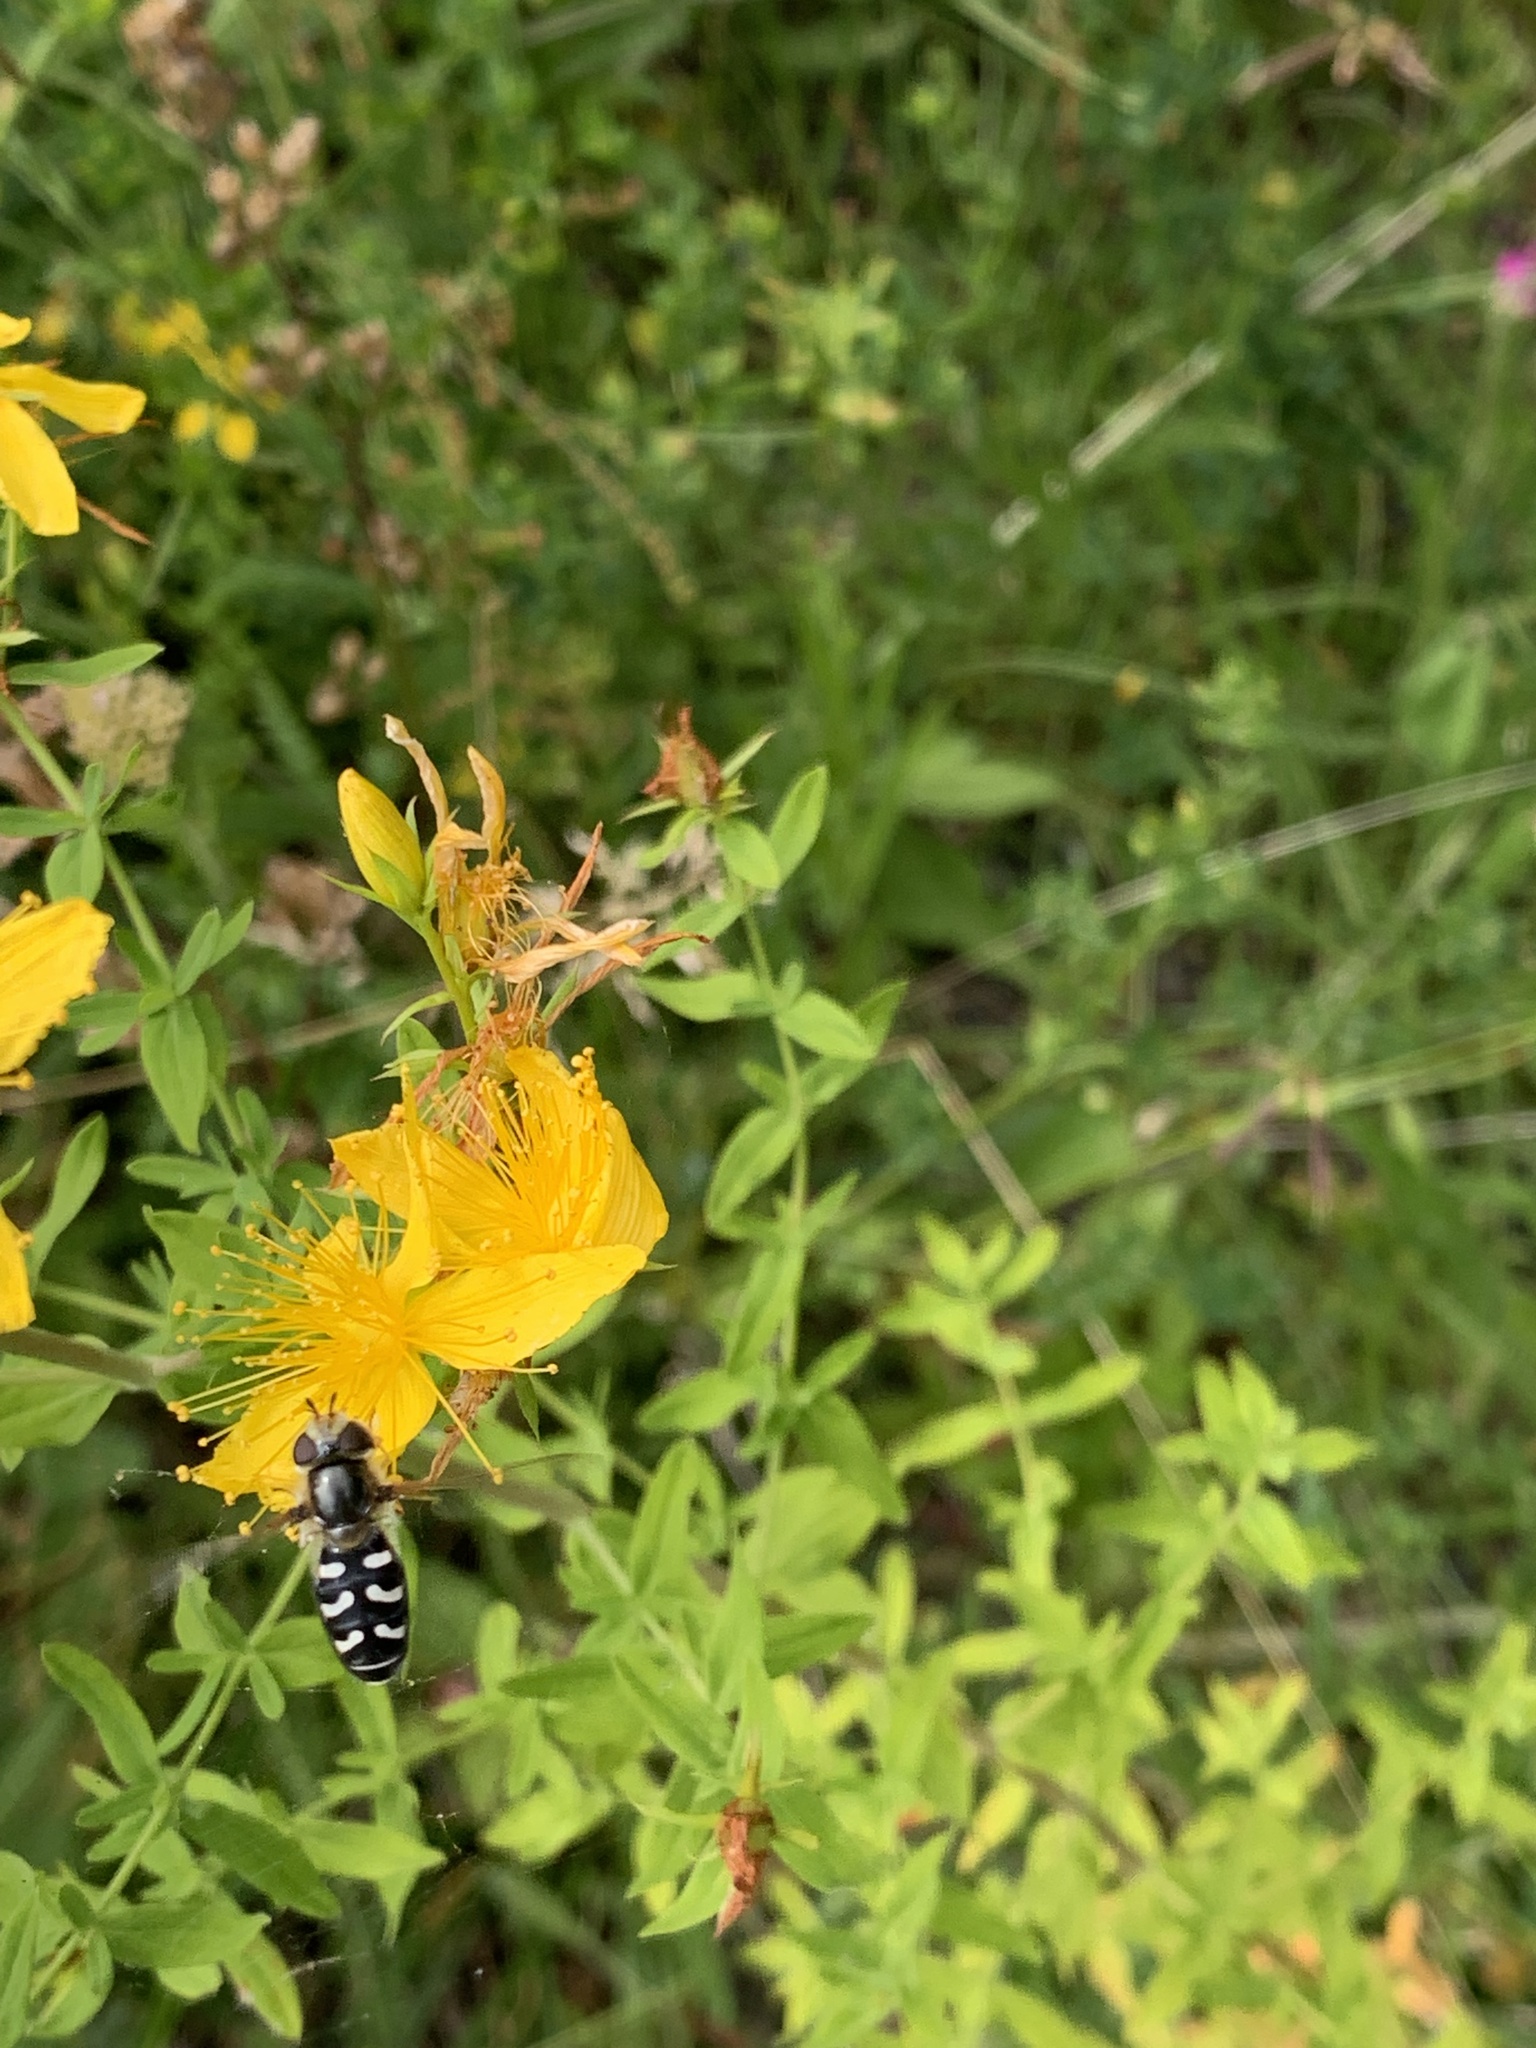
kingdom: Animalia
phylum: Arthropoda
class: Insecta
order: Diptera
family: Syrphidae
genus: Scaeva
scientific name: Scaeva pyrastri
